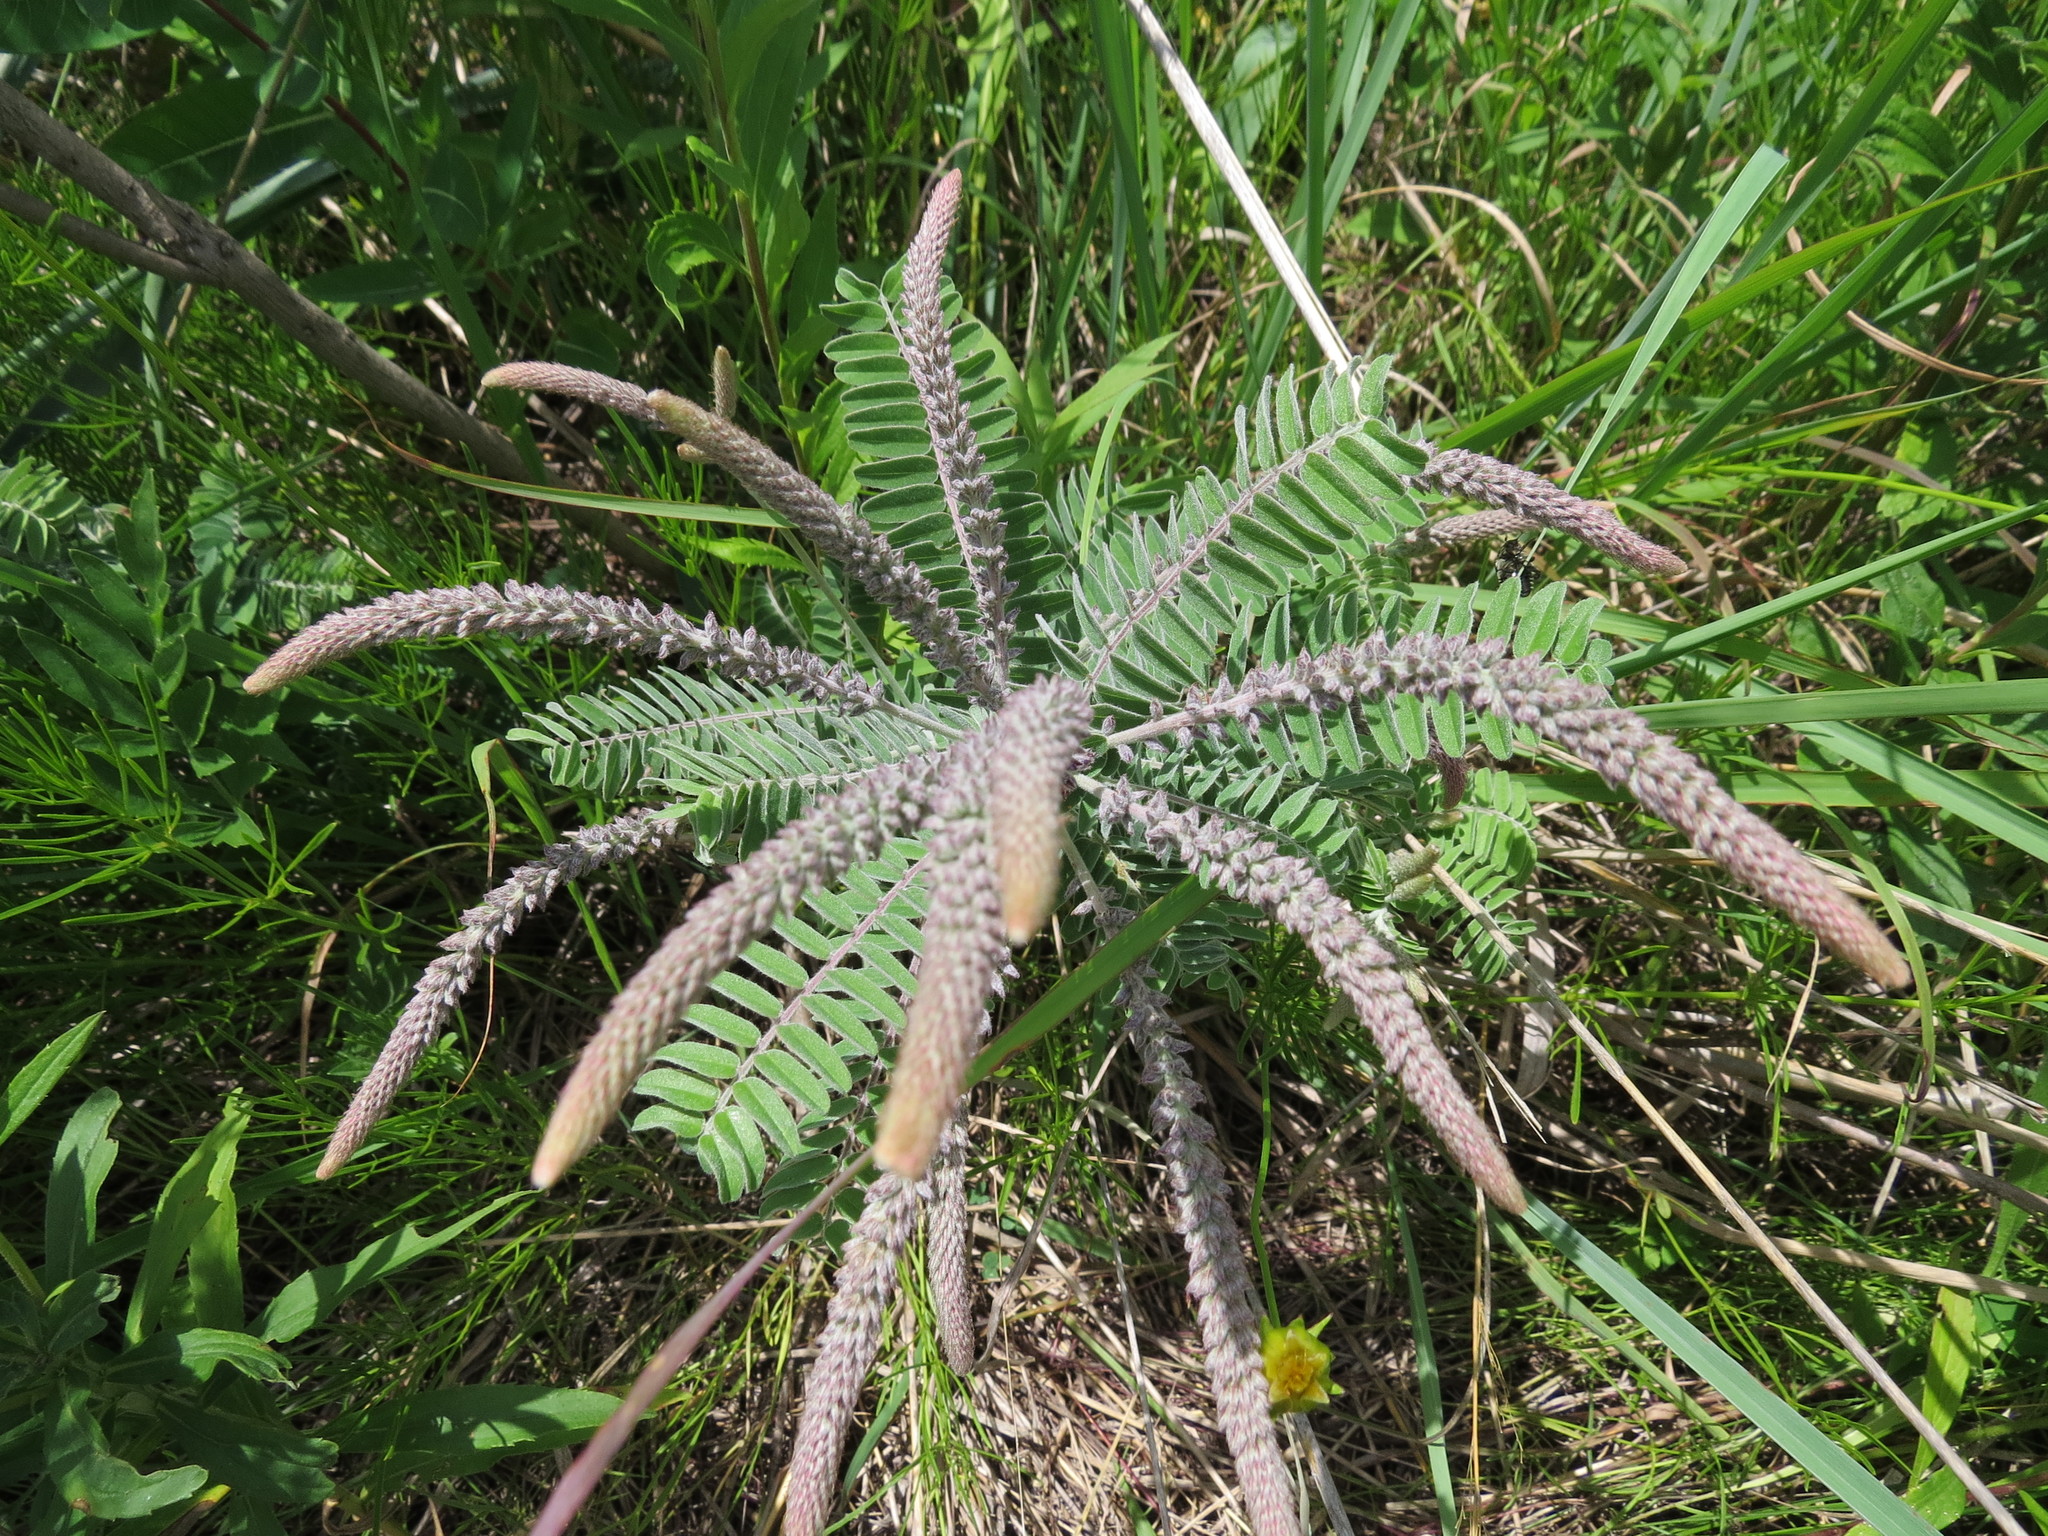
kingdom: Plantae
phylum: Tracheophyta
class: Magnoliopsida
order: Fabales
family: Fabaceae
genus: Amorpha
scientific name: Amorpha canescens
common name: Leadplant
